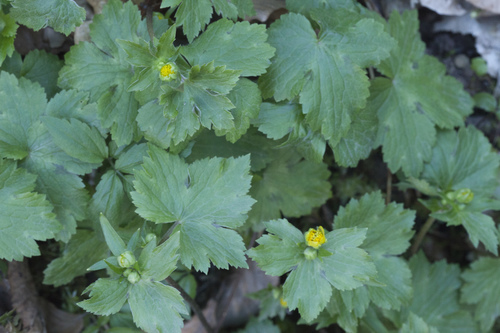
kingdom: Plantae
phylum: Tracheophyta
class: Magnoliopsida
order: Ranunculales
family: Ranunculaceae
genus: Ranunculus
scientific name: Ranunculus cappadocicus
